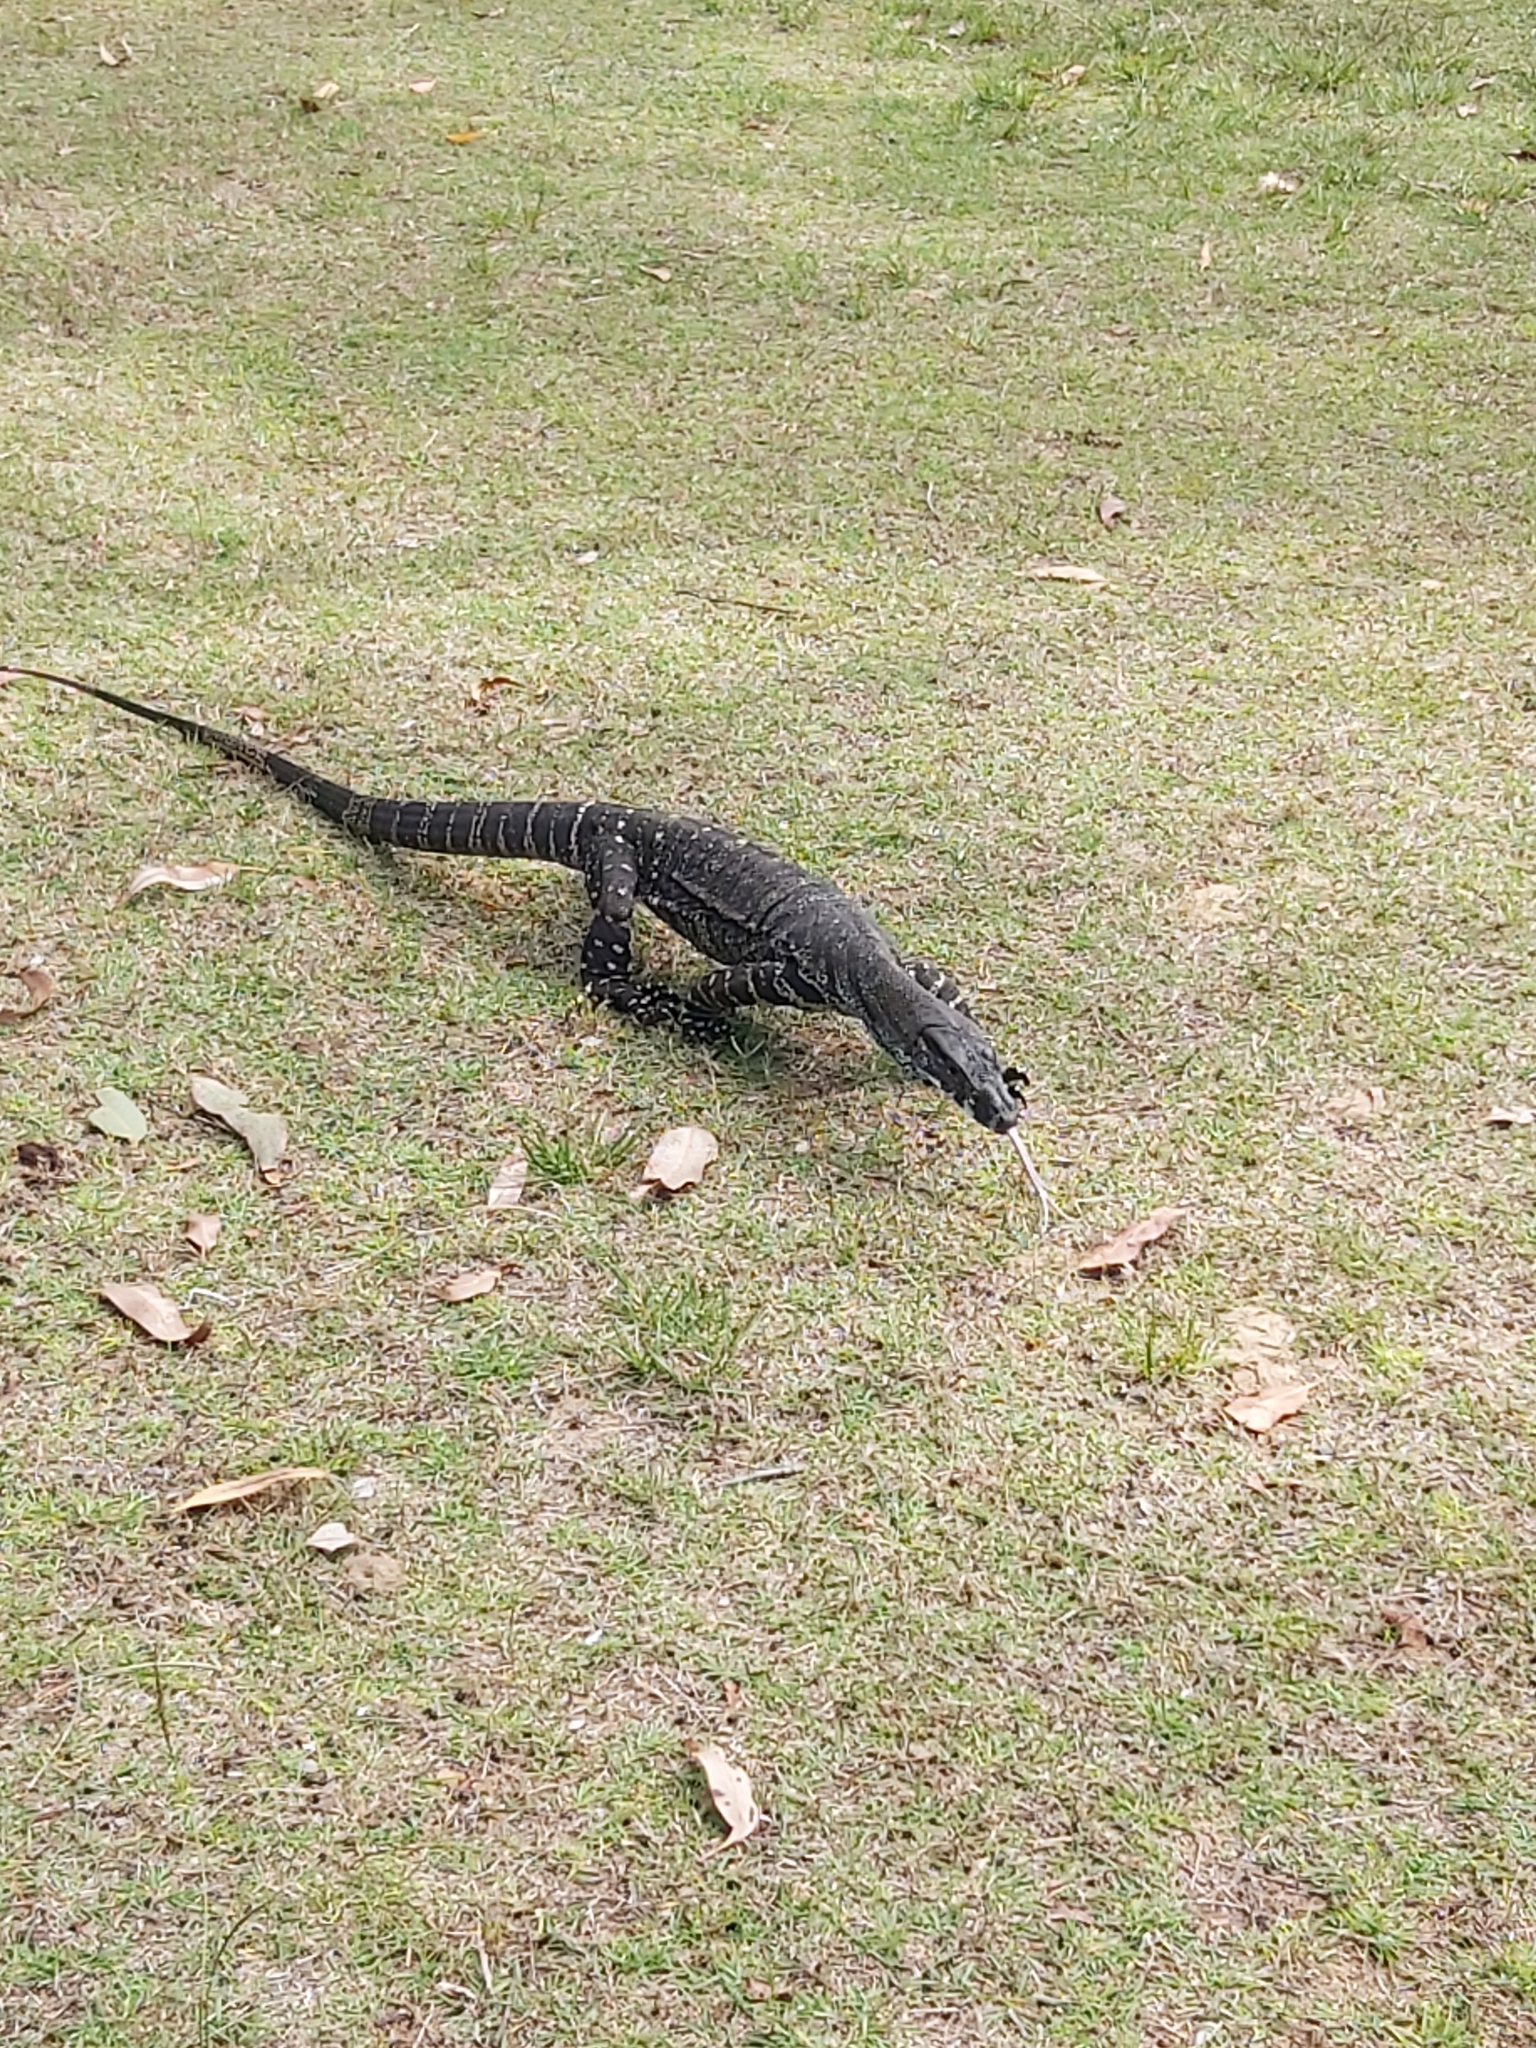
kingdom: Animalia
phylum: Chordata
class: Squamata
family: Varanidae
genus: Varanus
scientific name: Varanus varius
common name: Lace monitor
